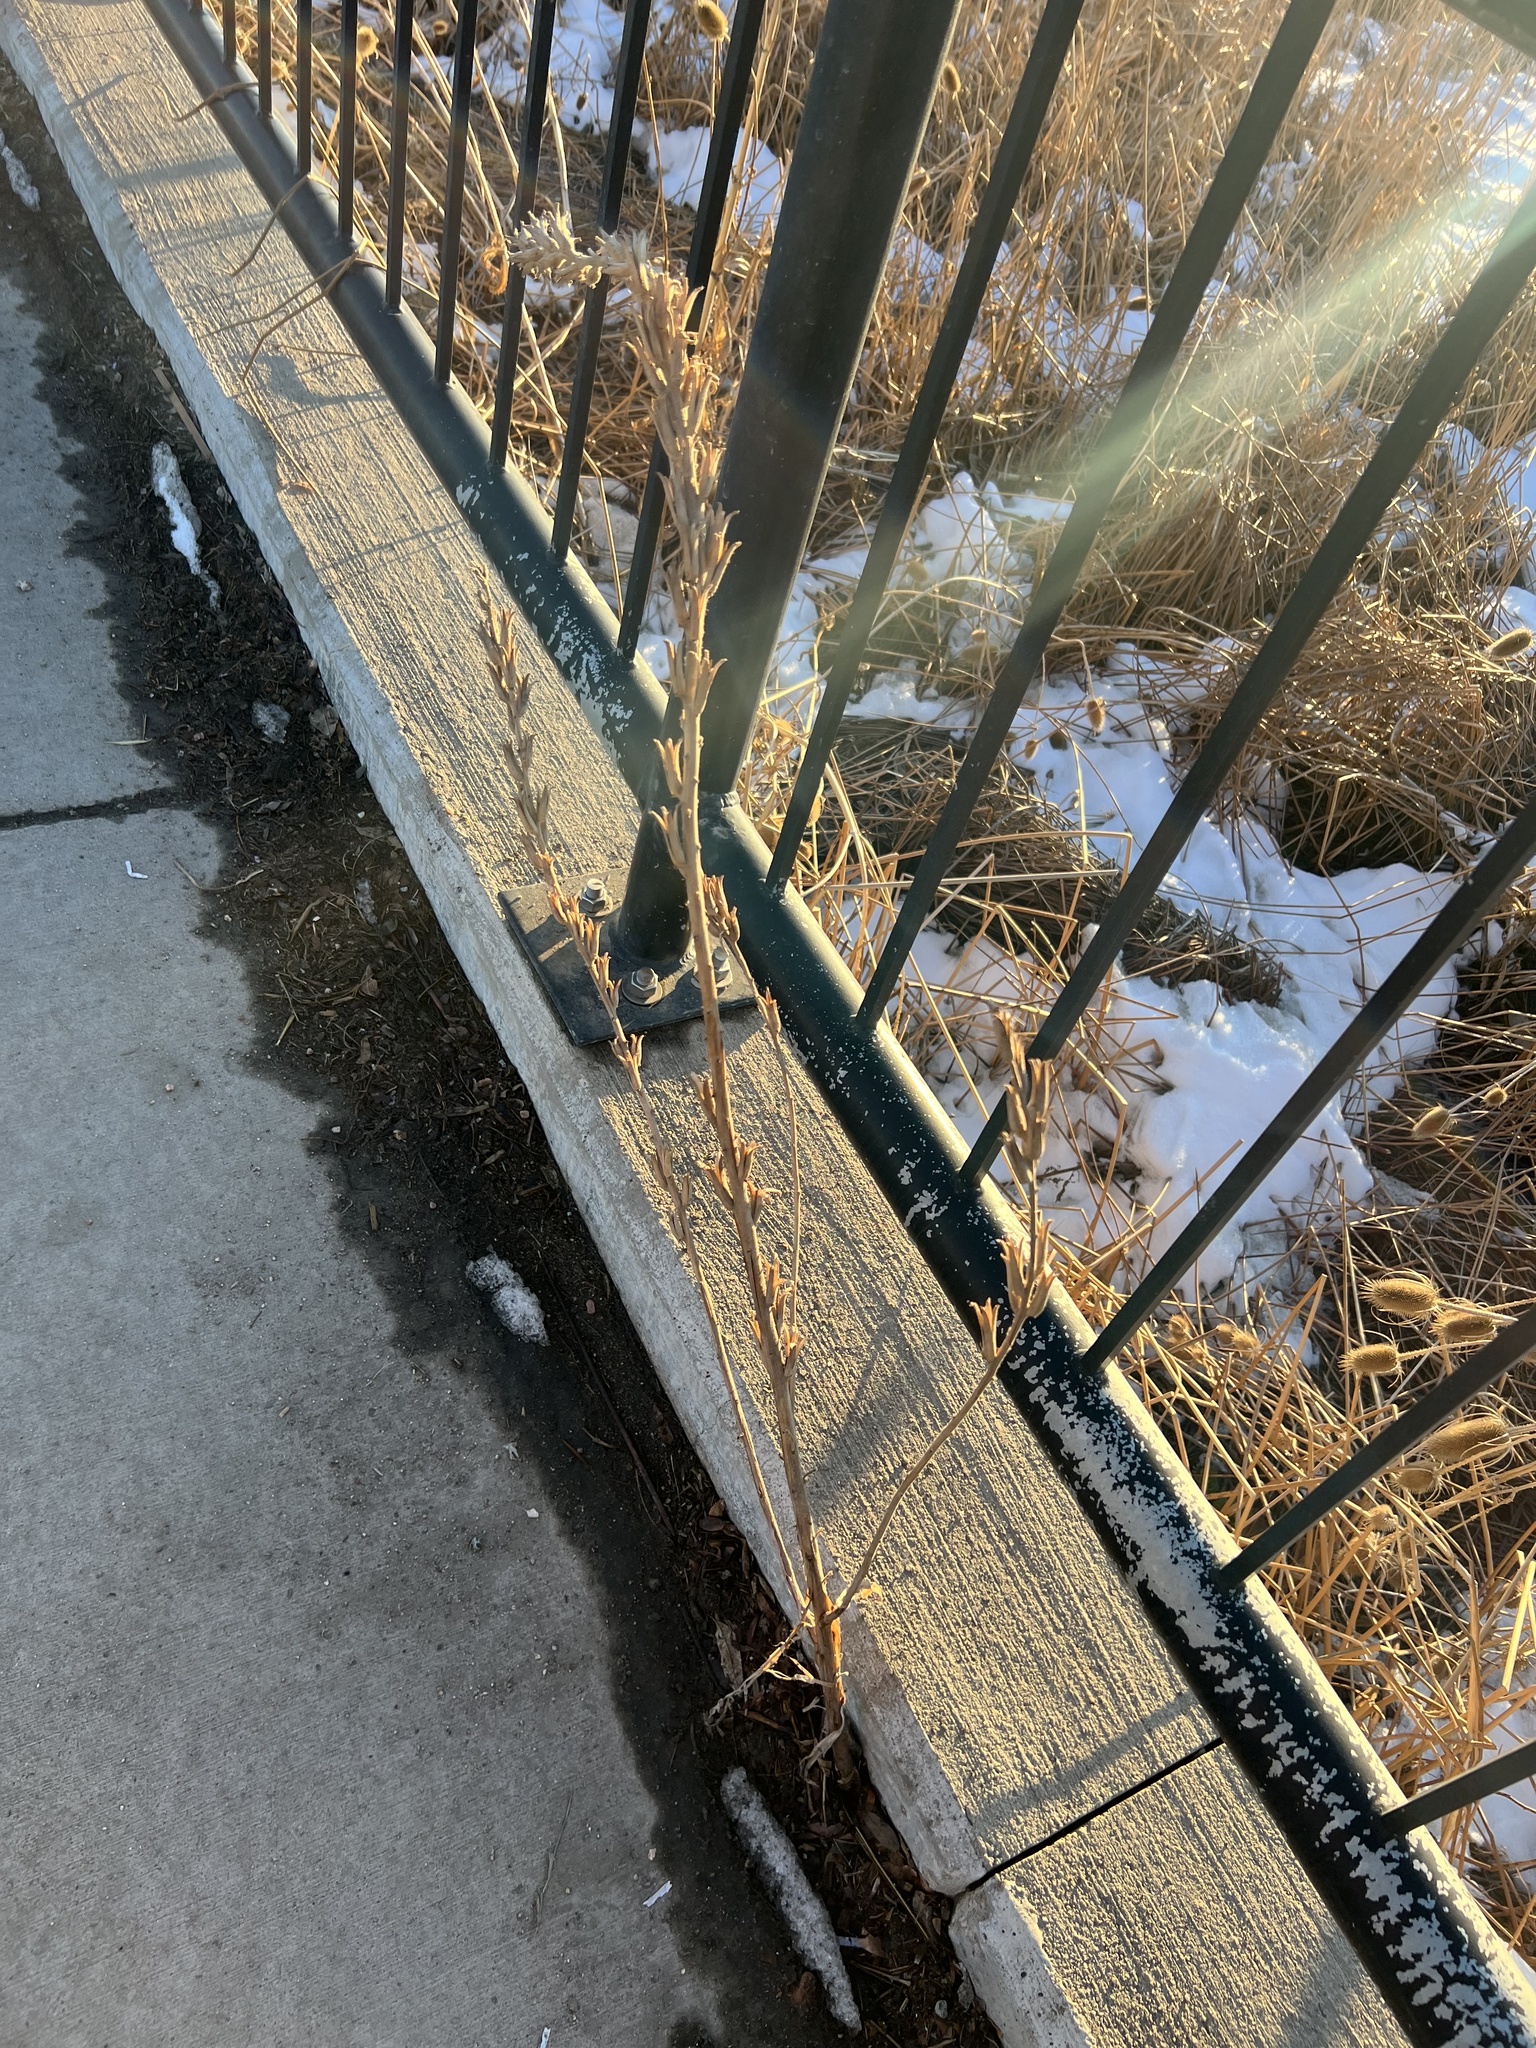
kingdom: Plantae
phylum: Tracheophyta
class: Magnoliopsida
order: Myrtales
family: Onagraceae
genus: Oenothera
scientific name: Oenothera villosa
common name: Hairy evening-primrose
